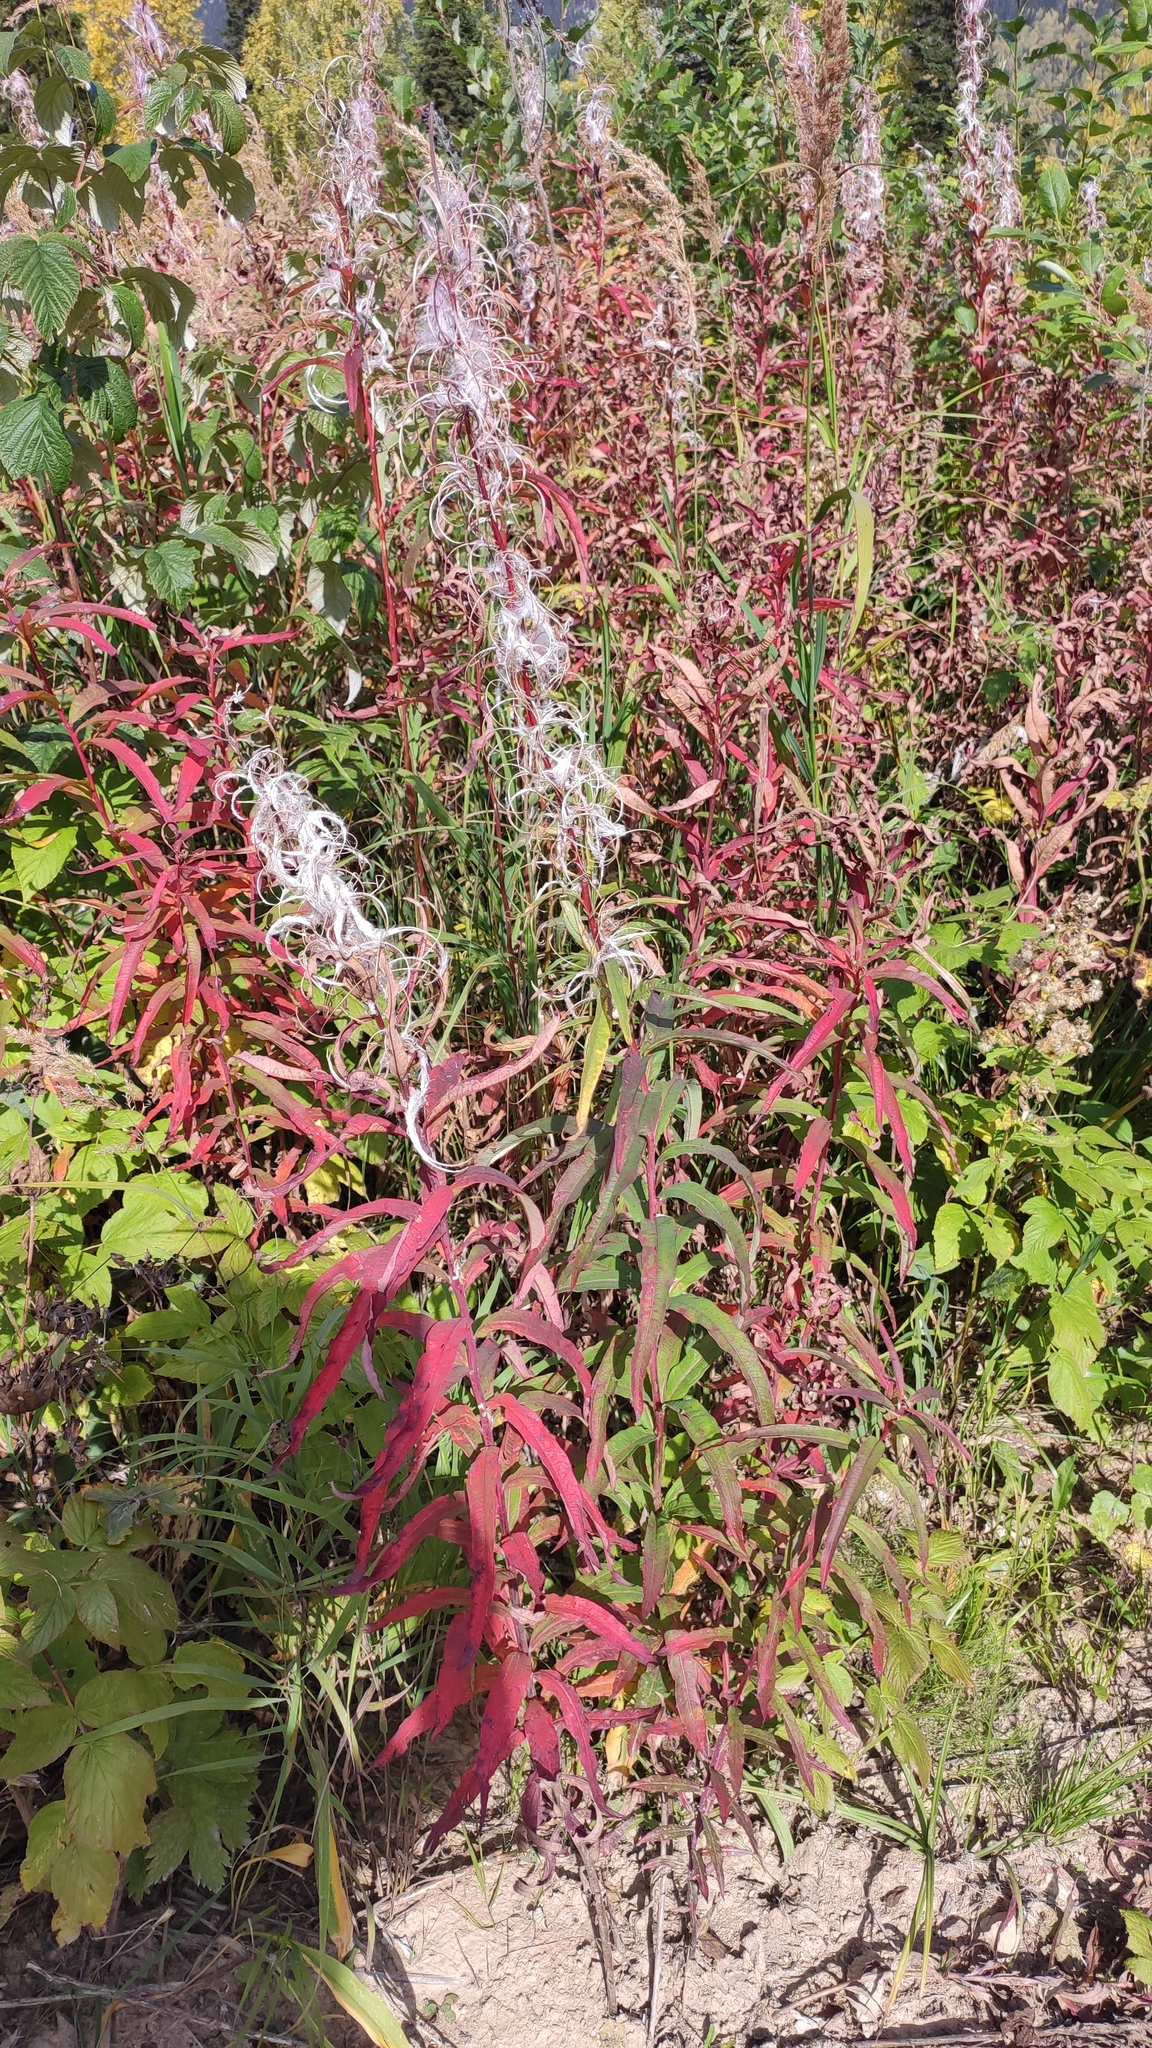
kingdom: Plantae
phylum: Tracheophyta
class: Magnoliopsida
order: Myrtales
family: Onagraceae
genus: Chamaenerion
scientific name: Chamaenerion angustifolium
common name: Fireweed
